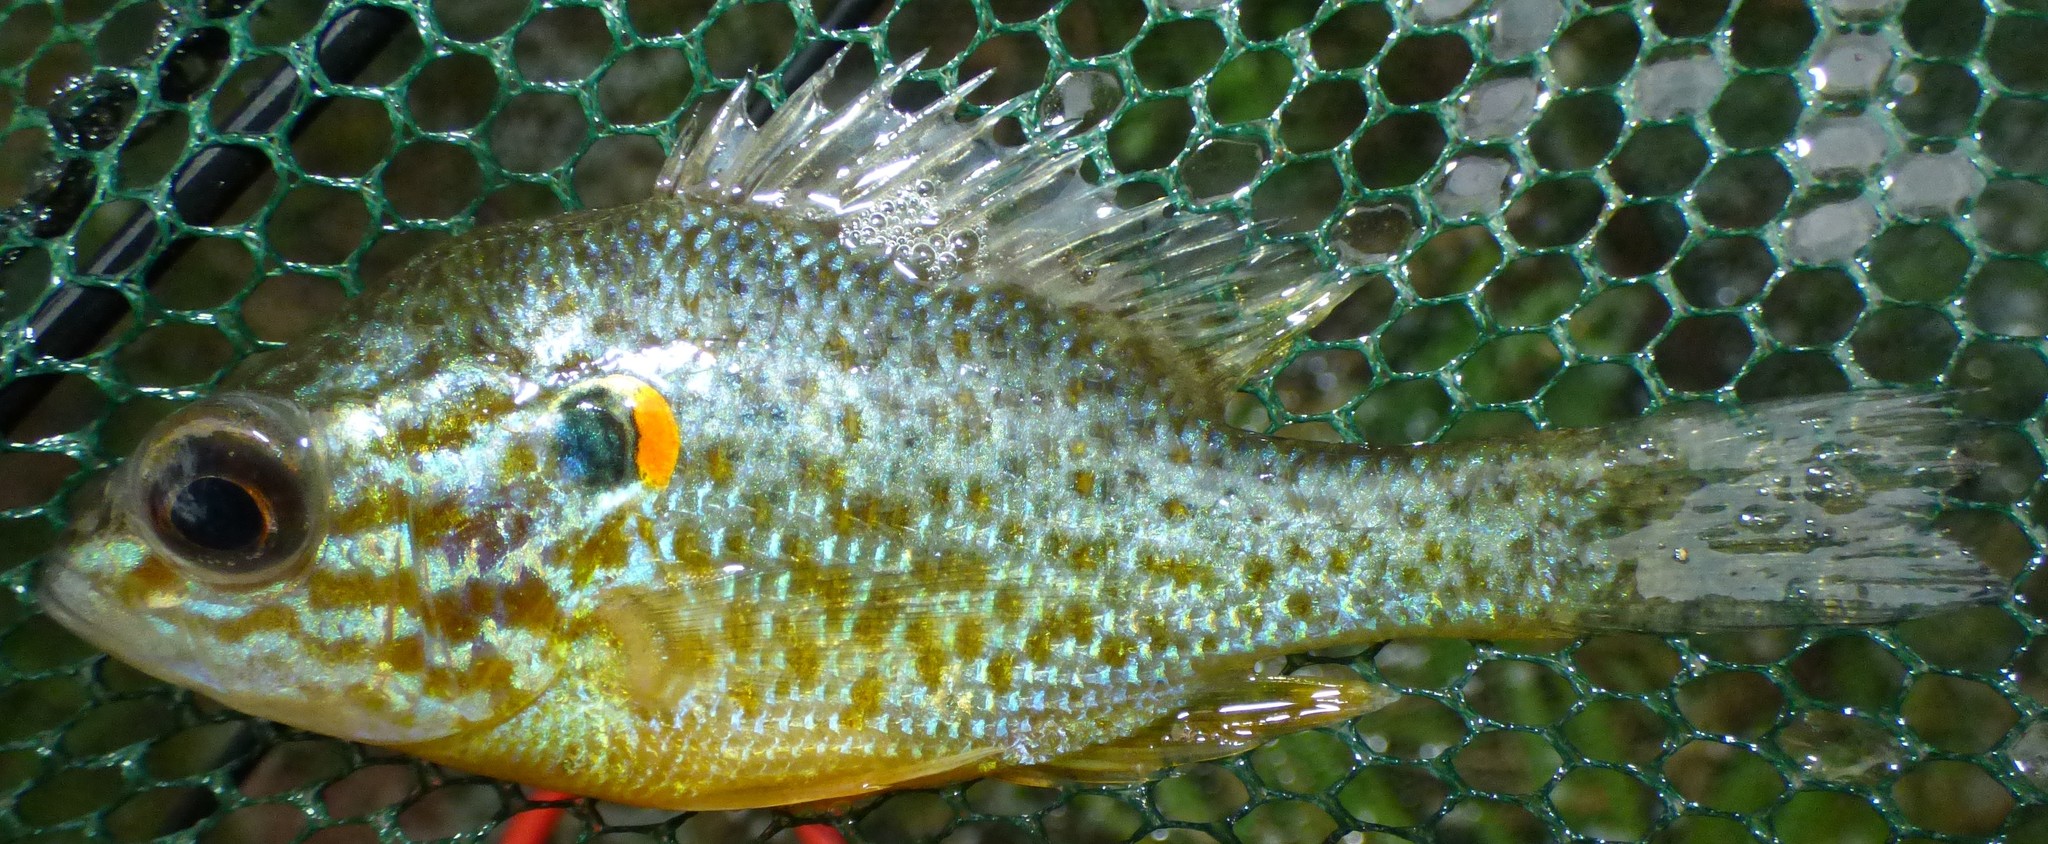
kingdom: Animalia
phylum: Chordata
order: Perciformes
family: Centrarchidae
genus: Lepomis
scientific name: Lepomis gibbosus
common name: Pumpkinseed
